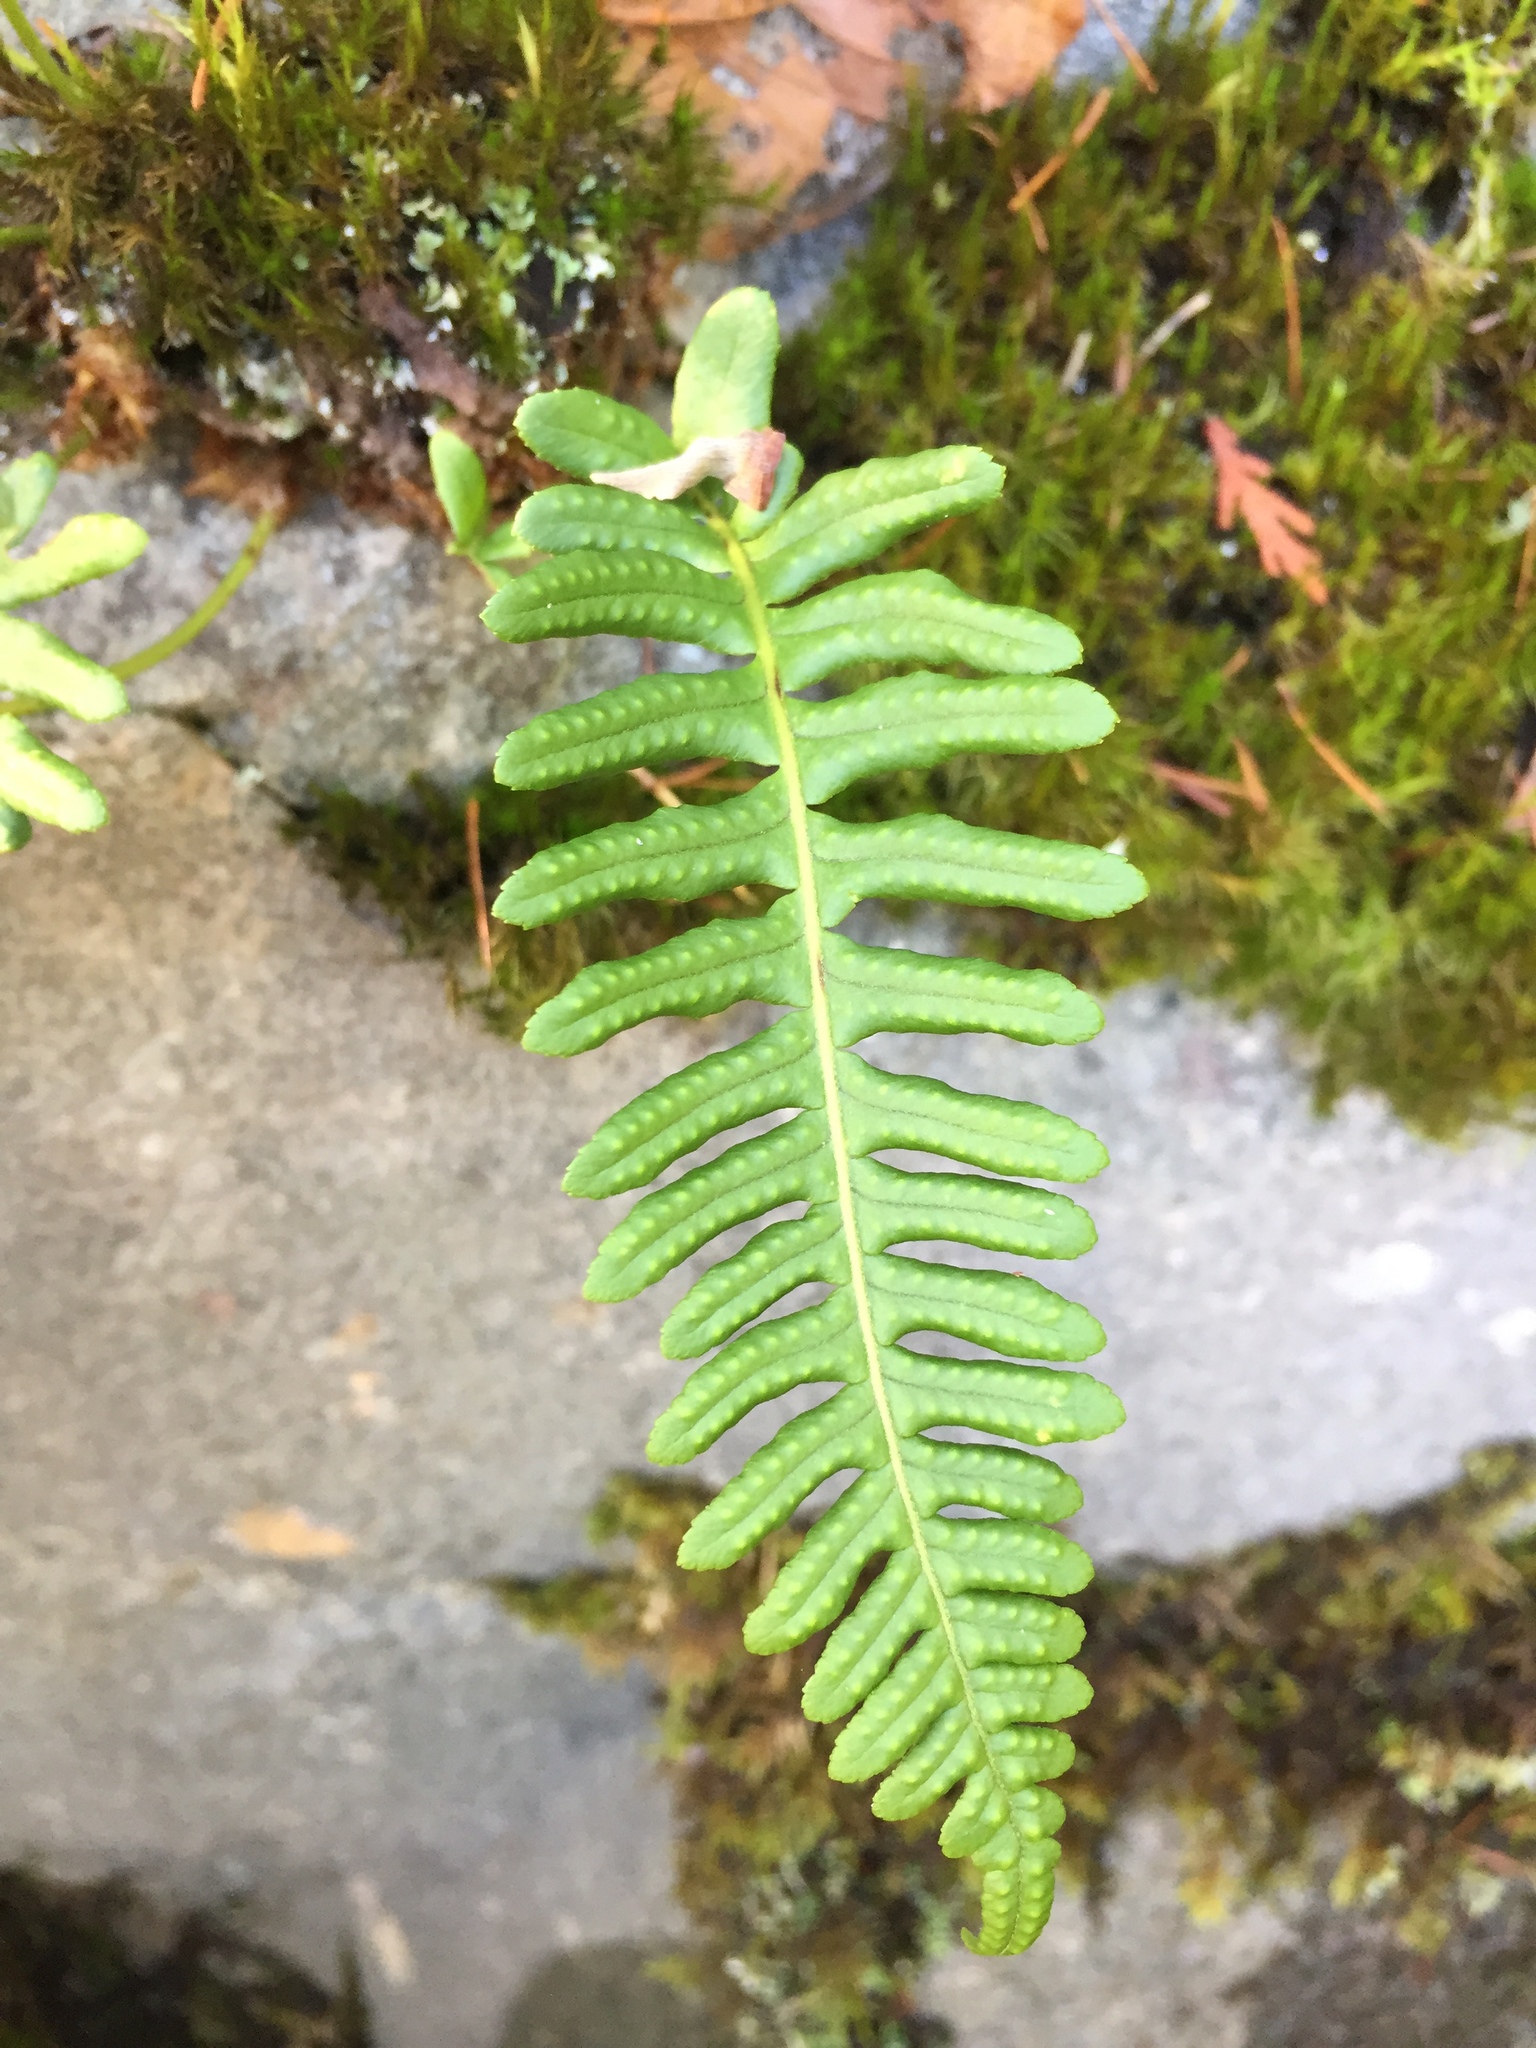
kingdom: Plantae
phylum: Tracheophyta
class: Polypodiopsida
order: Polypodiales
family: Polypodiaceae
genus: Polypodium
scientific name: Polypodium glycyrrhiza
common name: Licorice fern
